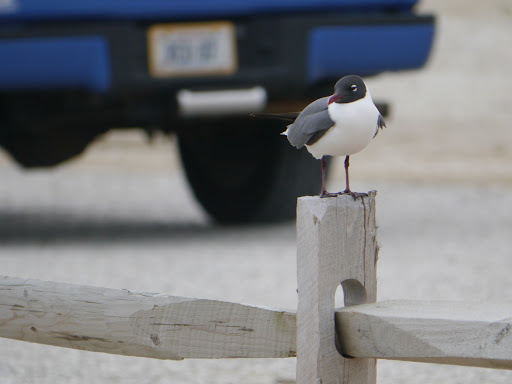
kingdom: Animalia
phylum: Chordata
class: Aves
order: Charadriiformes
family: Laridae
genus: Leucophaeus
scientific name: Leucophaeus atricilla
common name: Laughing gull
